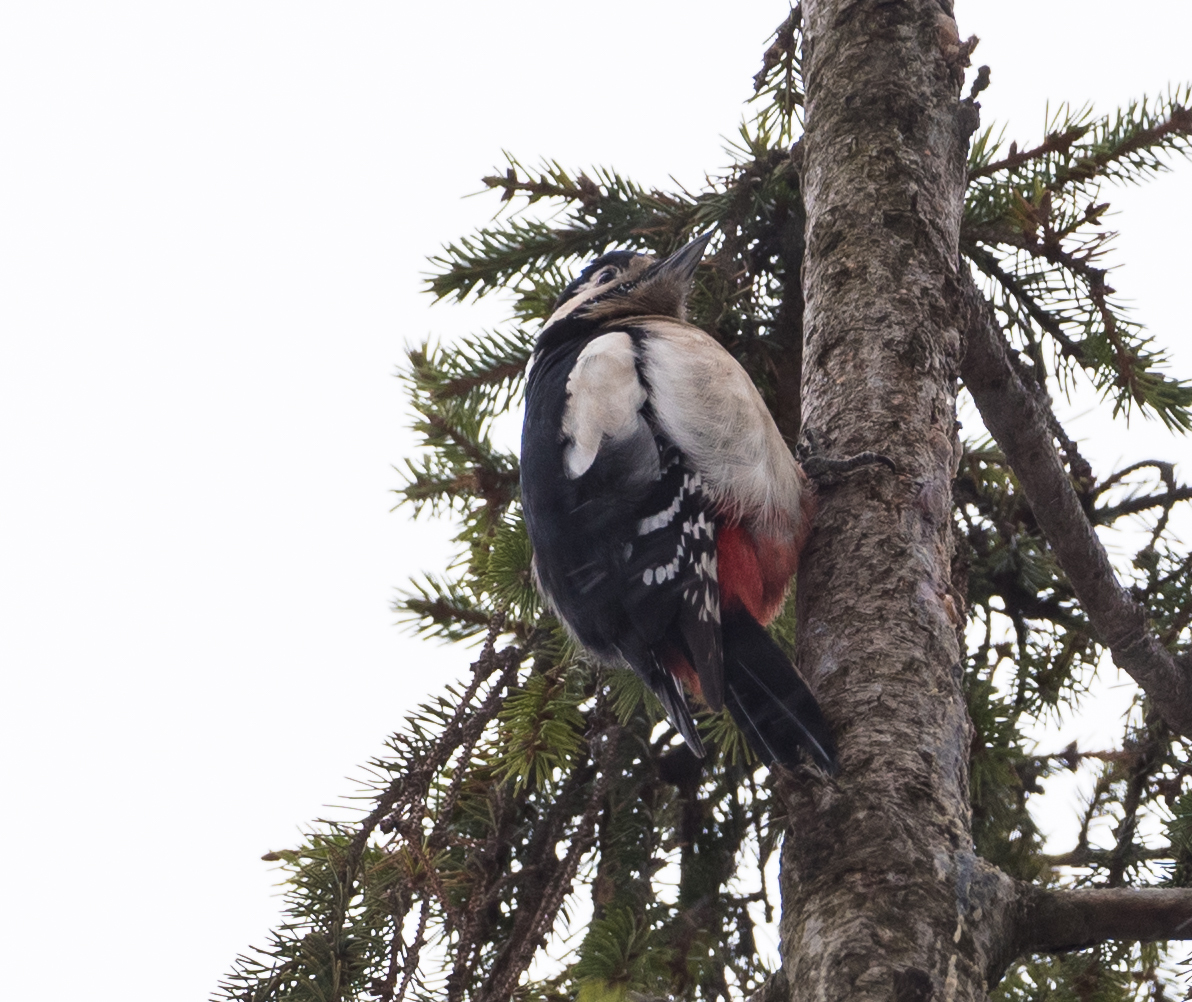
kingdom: Animalia
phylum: Chordata
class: Aves
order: Piciformes
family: Picidae
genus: Dendrocopos
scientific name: Dendrocopos major
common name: Great spotted woodpecker
